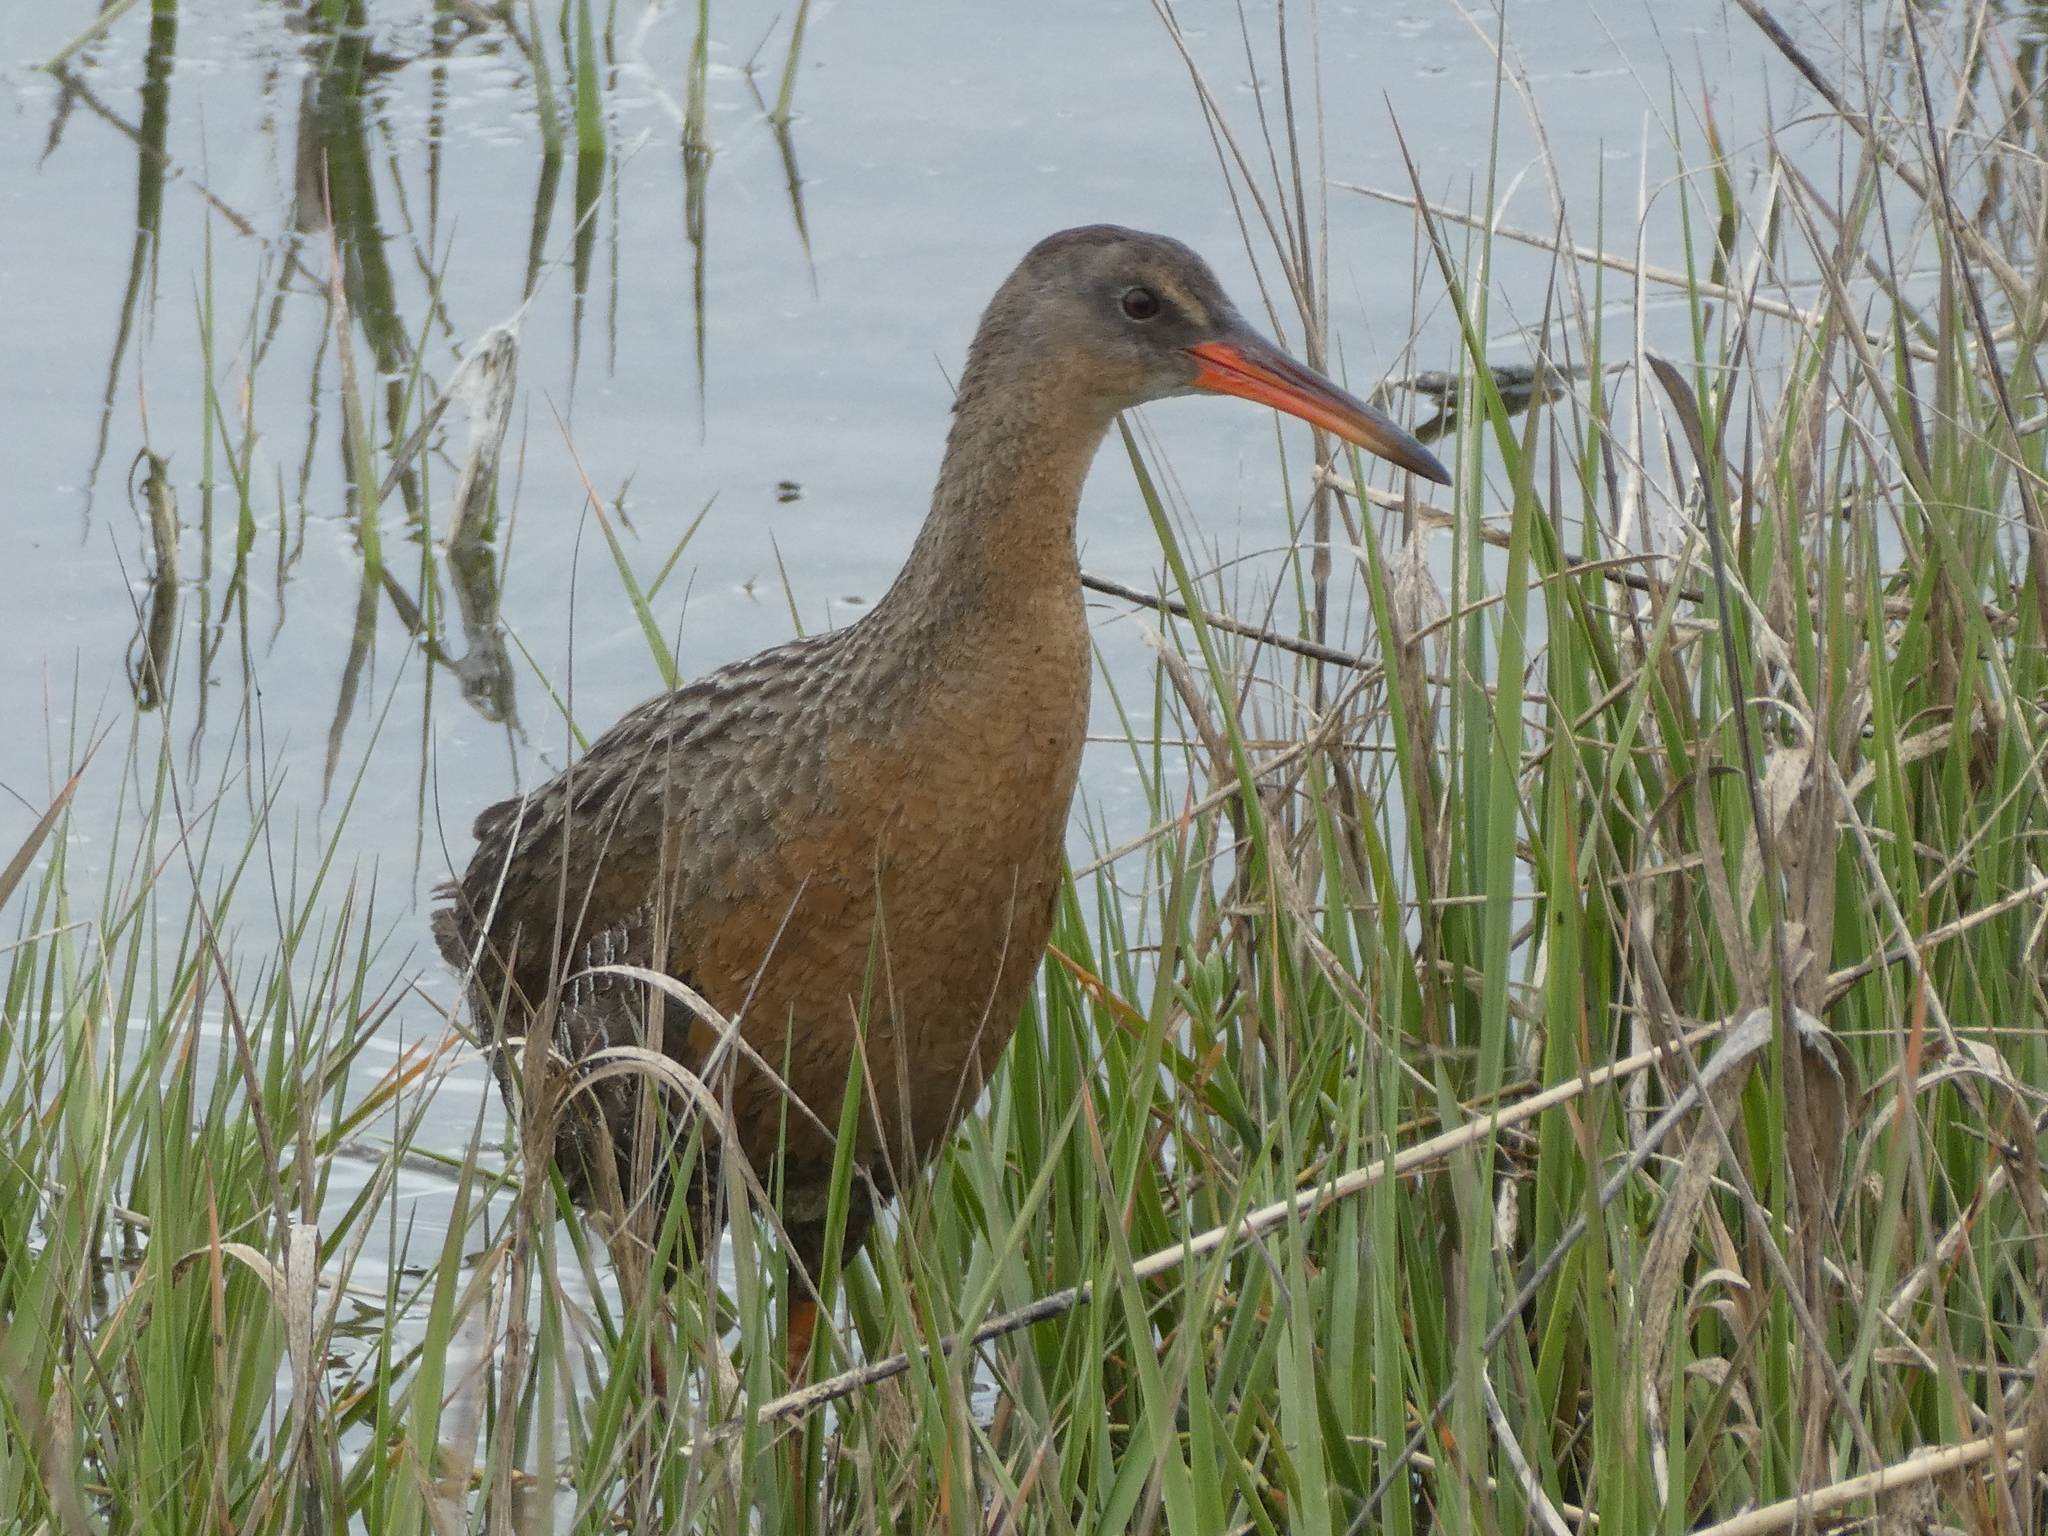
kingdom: Animalia
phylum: Chordata
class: Aves
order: Gruiformes
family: Rallidae
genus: Rallus
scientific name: Rallus obsoletus
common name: Ridgway's rail
